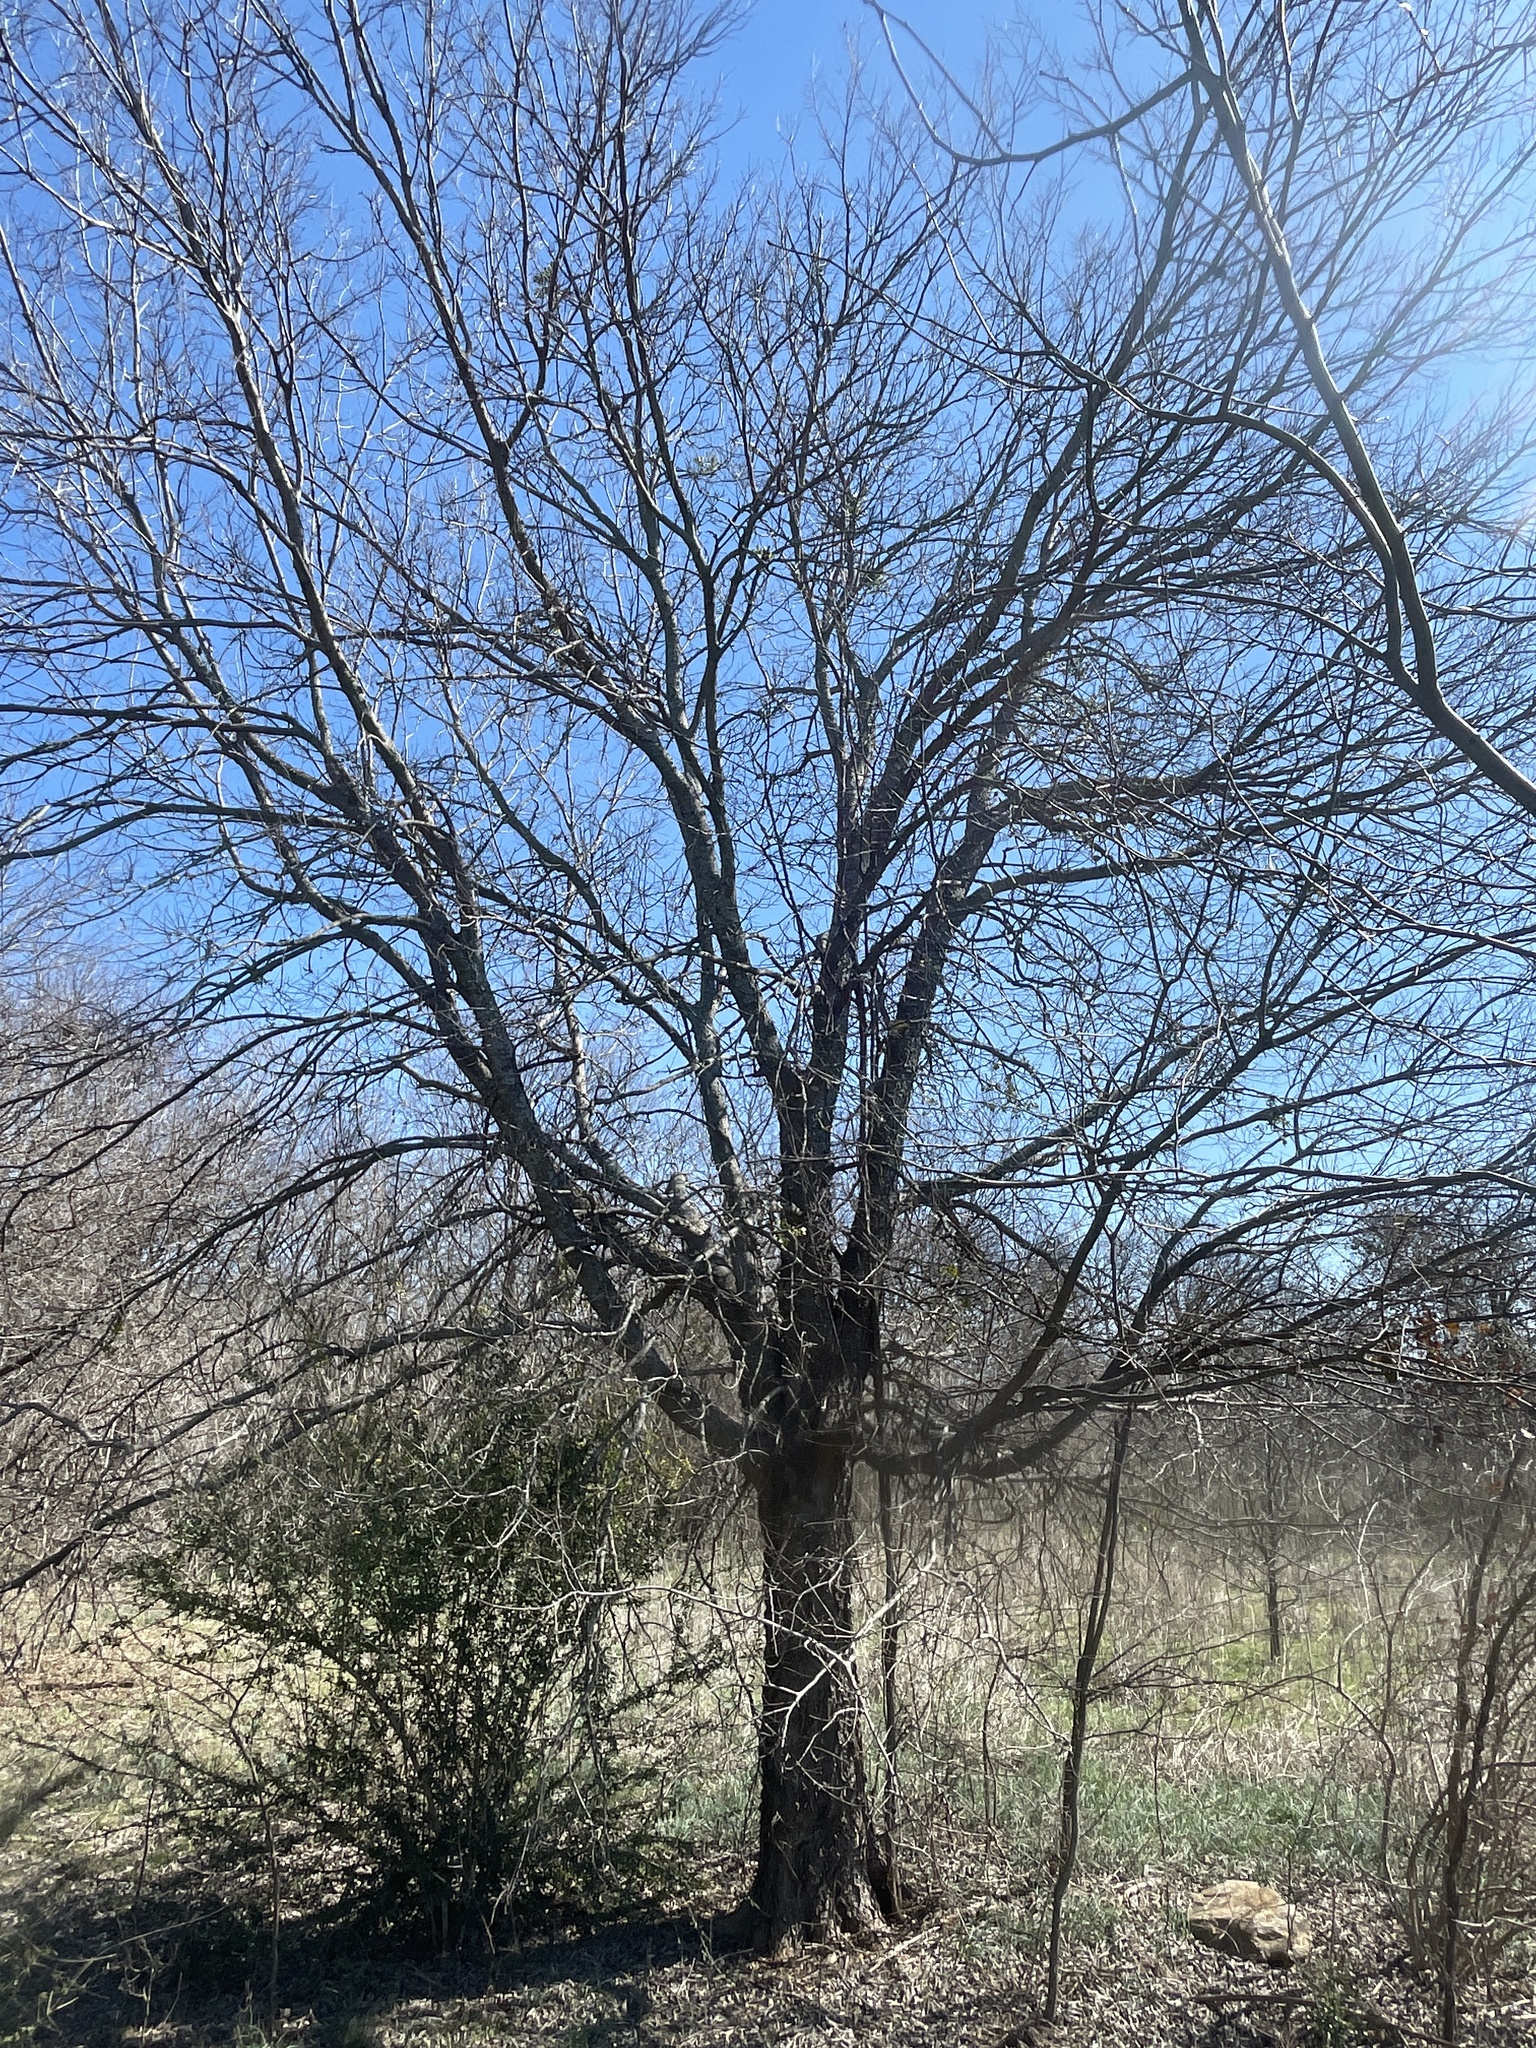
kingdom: Plantae
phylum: Tracheophyta
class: Magnoliopsida
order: Rosales
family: Cannabaceae
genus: Celtis
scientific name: Celtis laevigata
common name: Sugarberry
